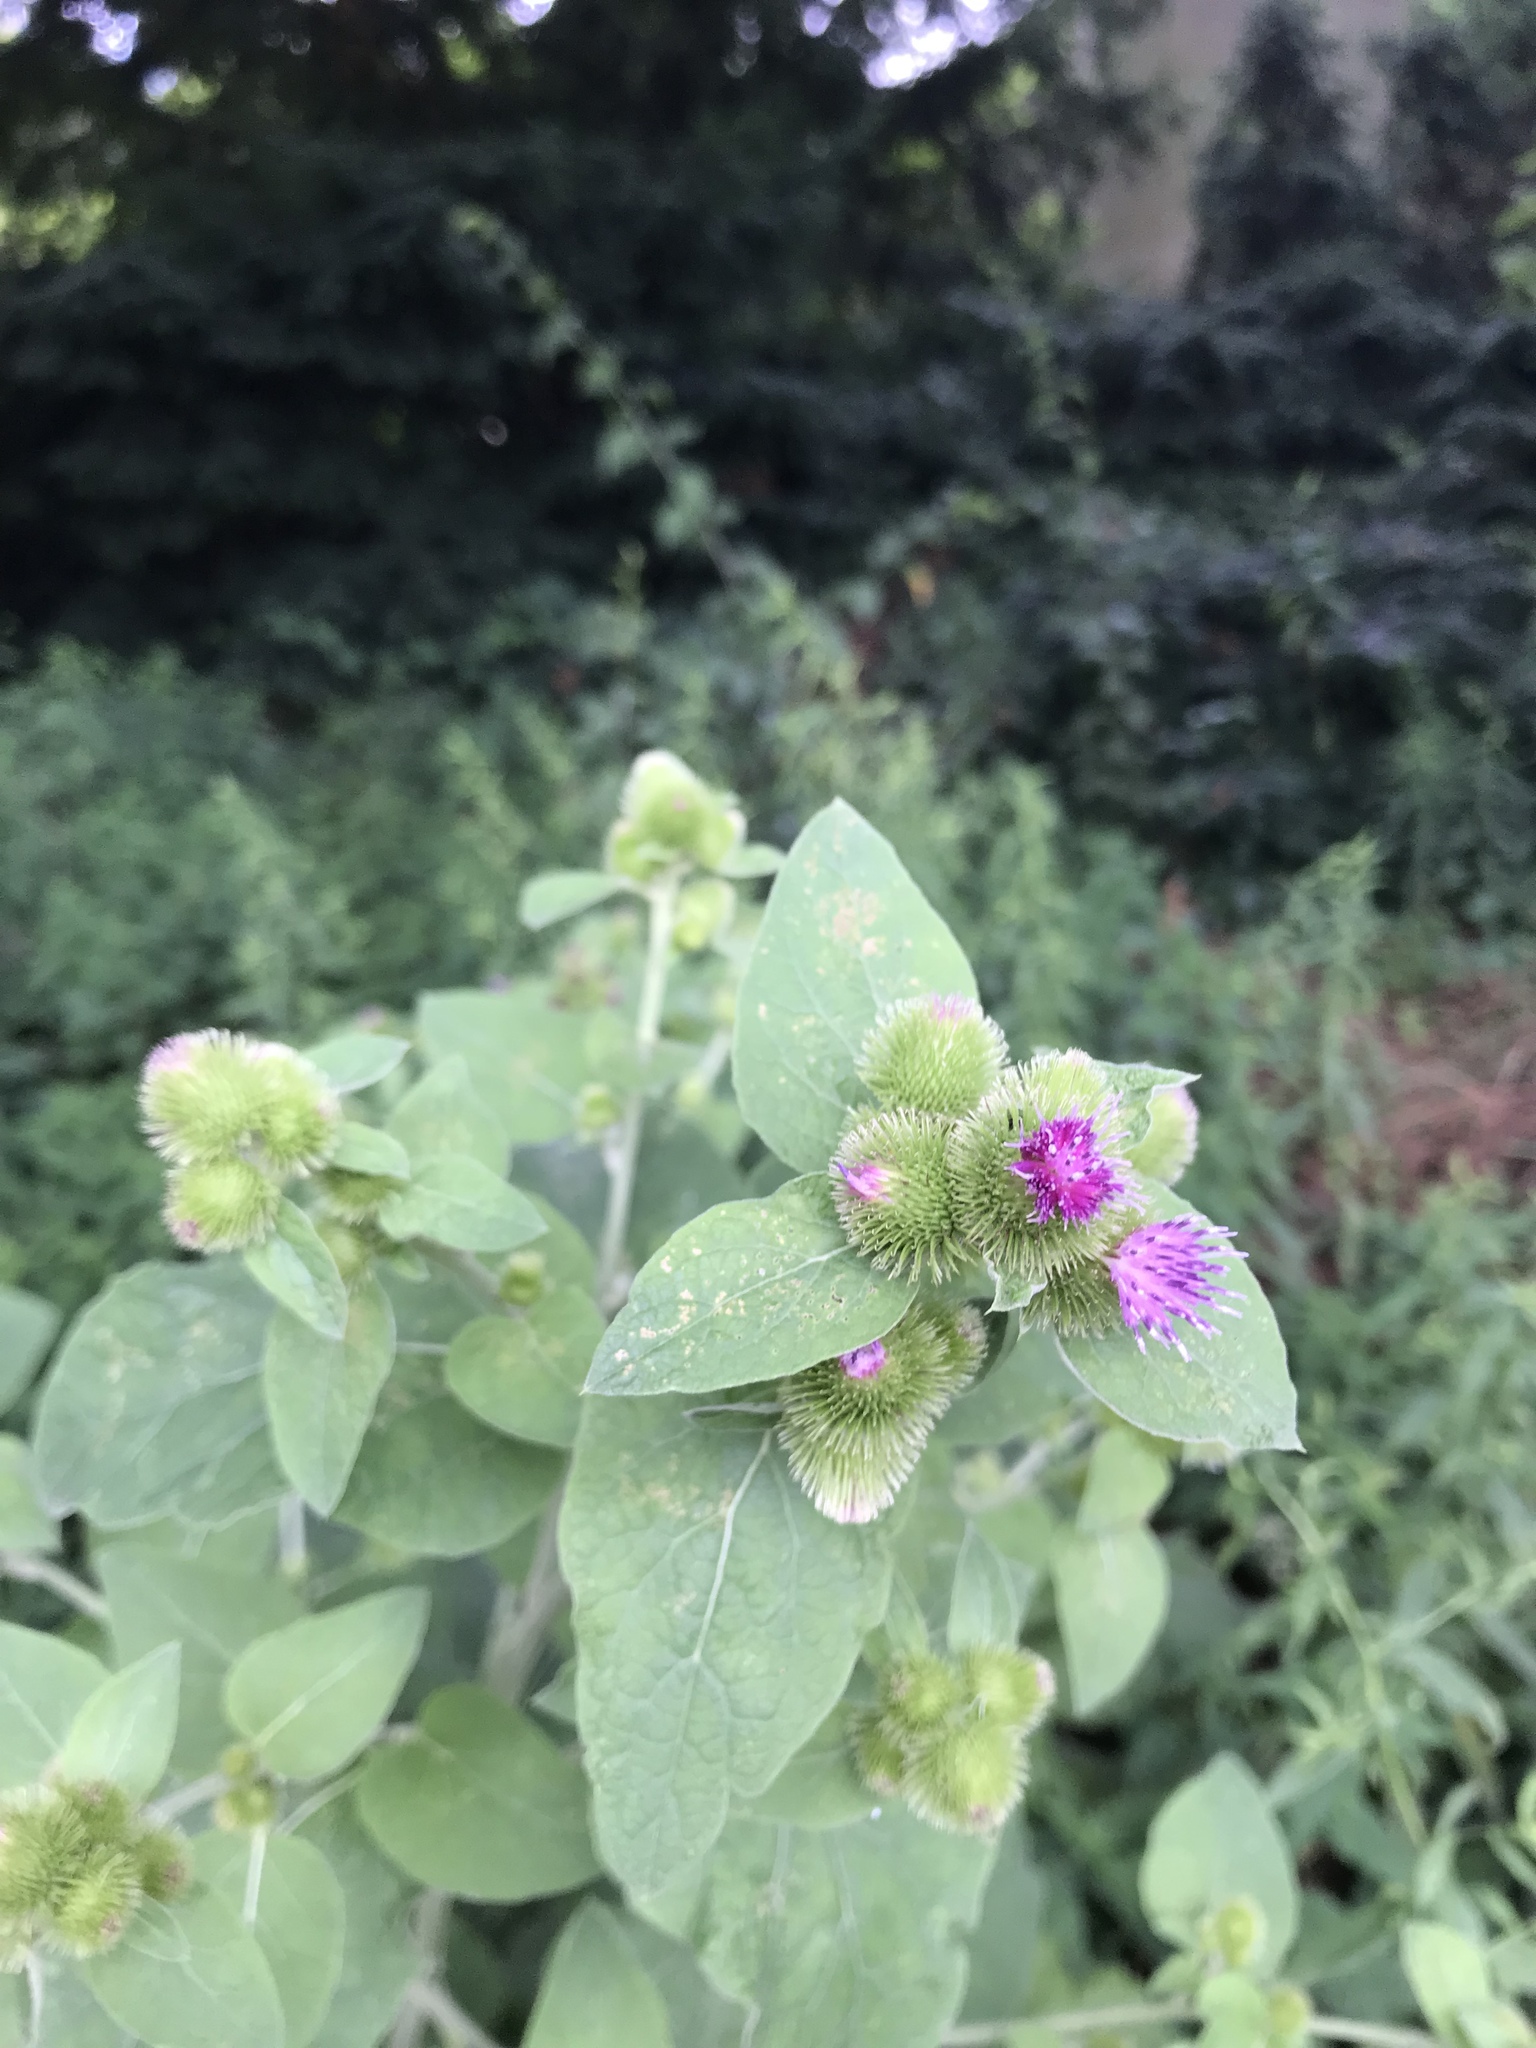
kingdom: Plantae
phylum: Tracheophyta
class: Magnoliopsida
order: Asterales
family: Asteraceae
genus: Arctium
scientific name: Arctium minus
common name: Lesser burdock
